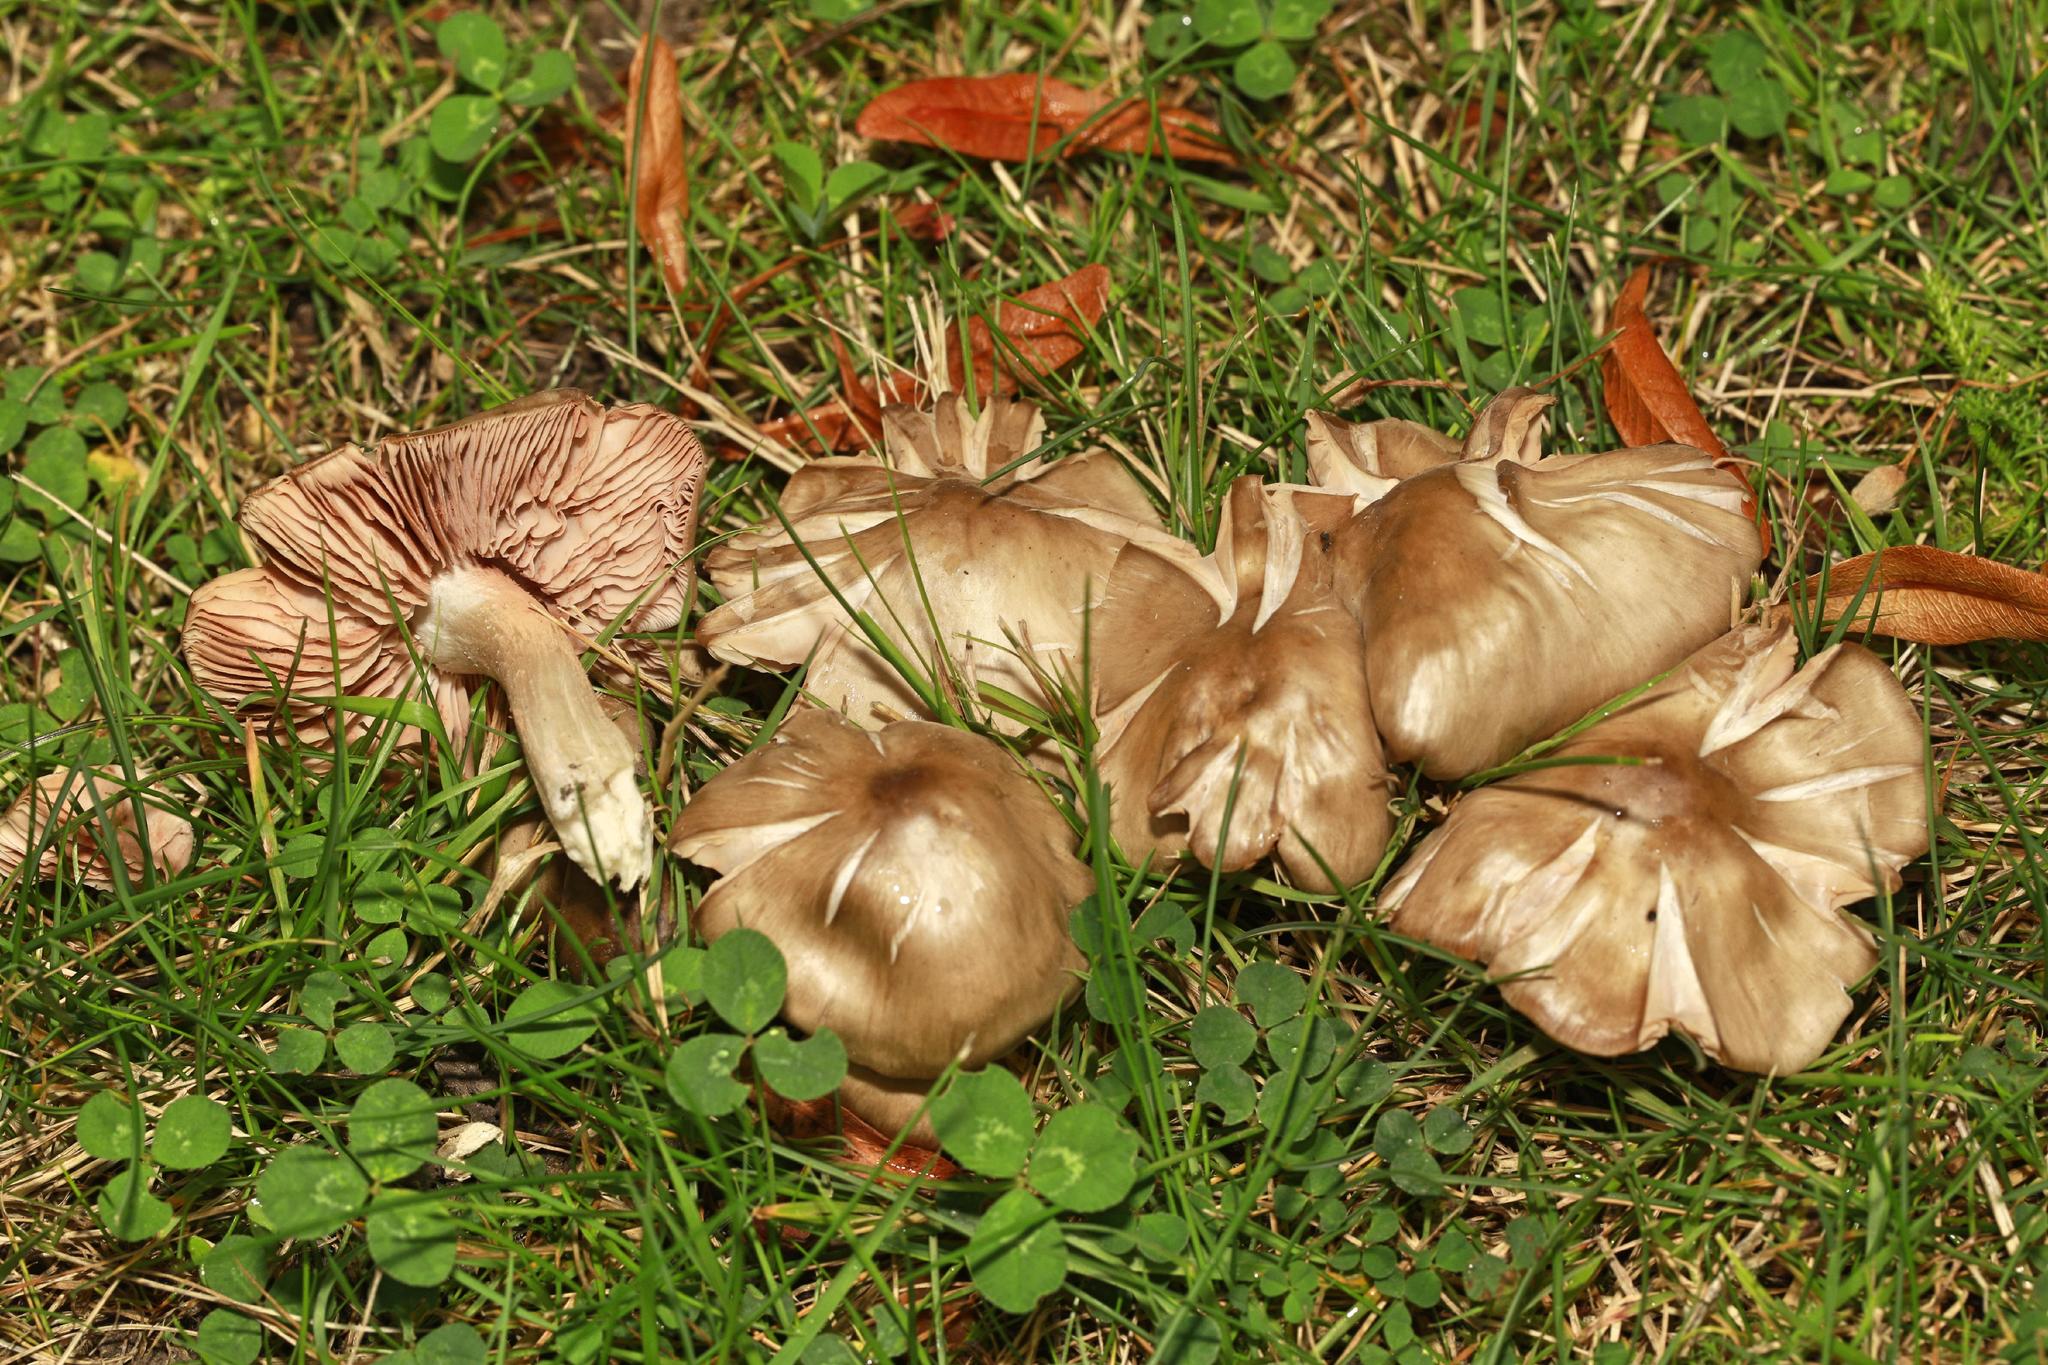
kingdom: Fungi
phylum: Basidiomycota
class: Agaricomycetes
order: Agaricales
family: Entolomataceae
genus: Entoloma
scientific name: Entoloma lividoalbum
